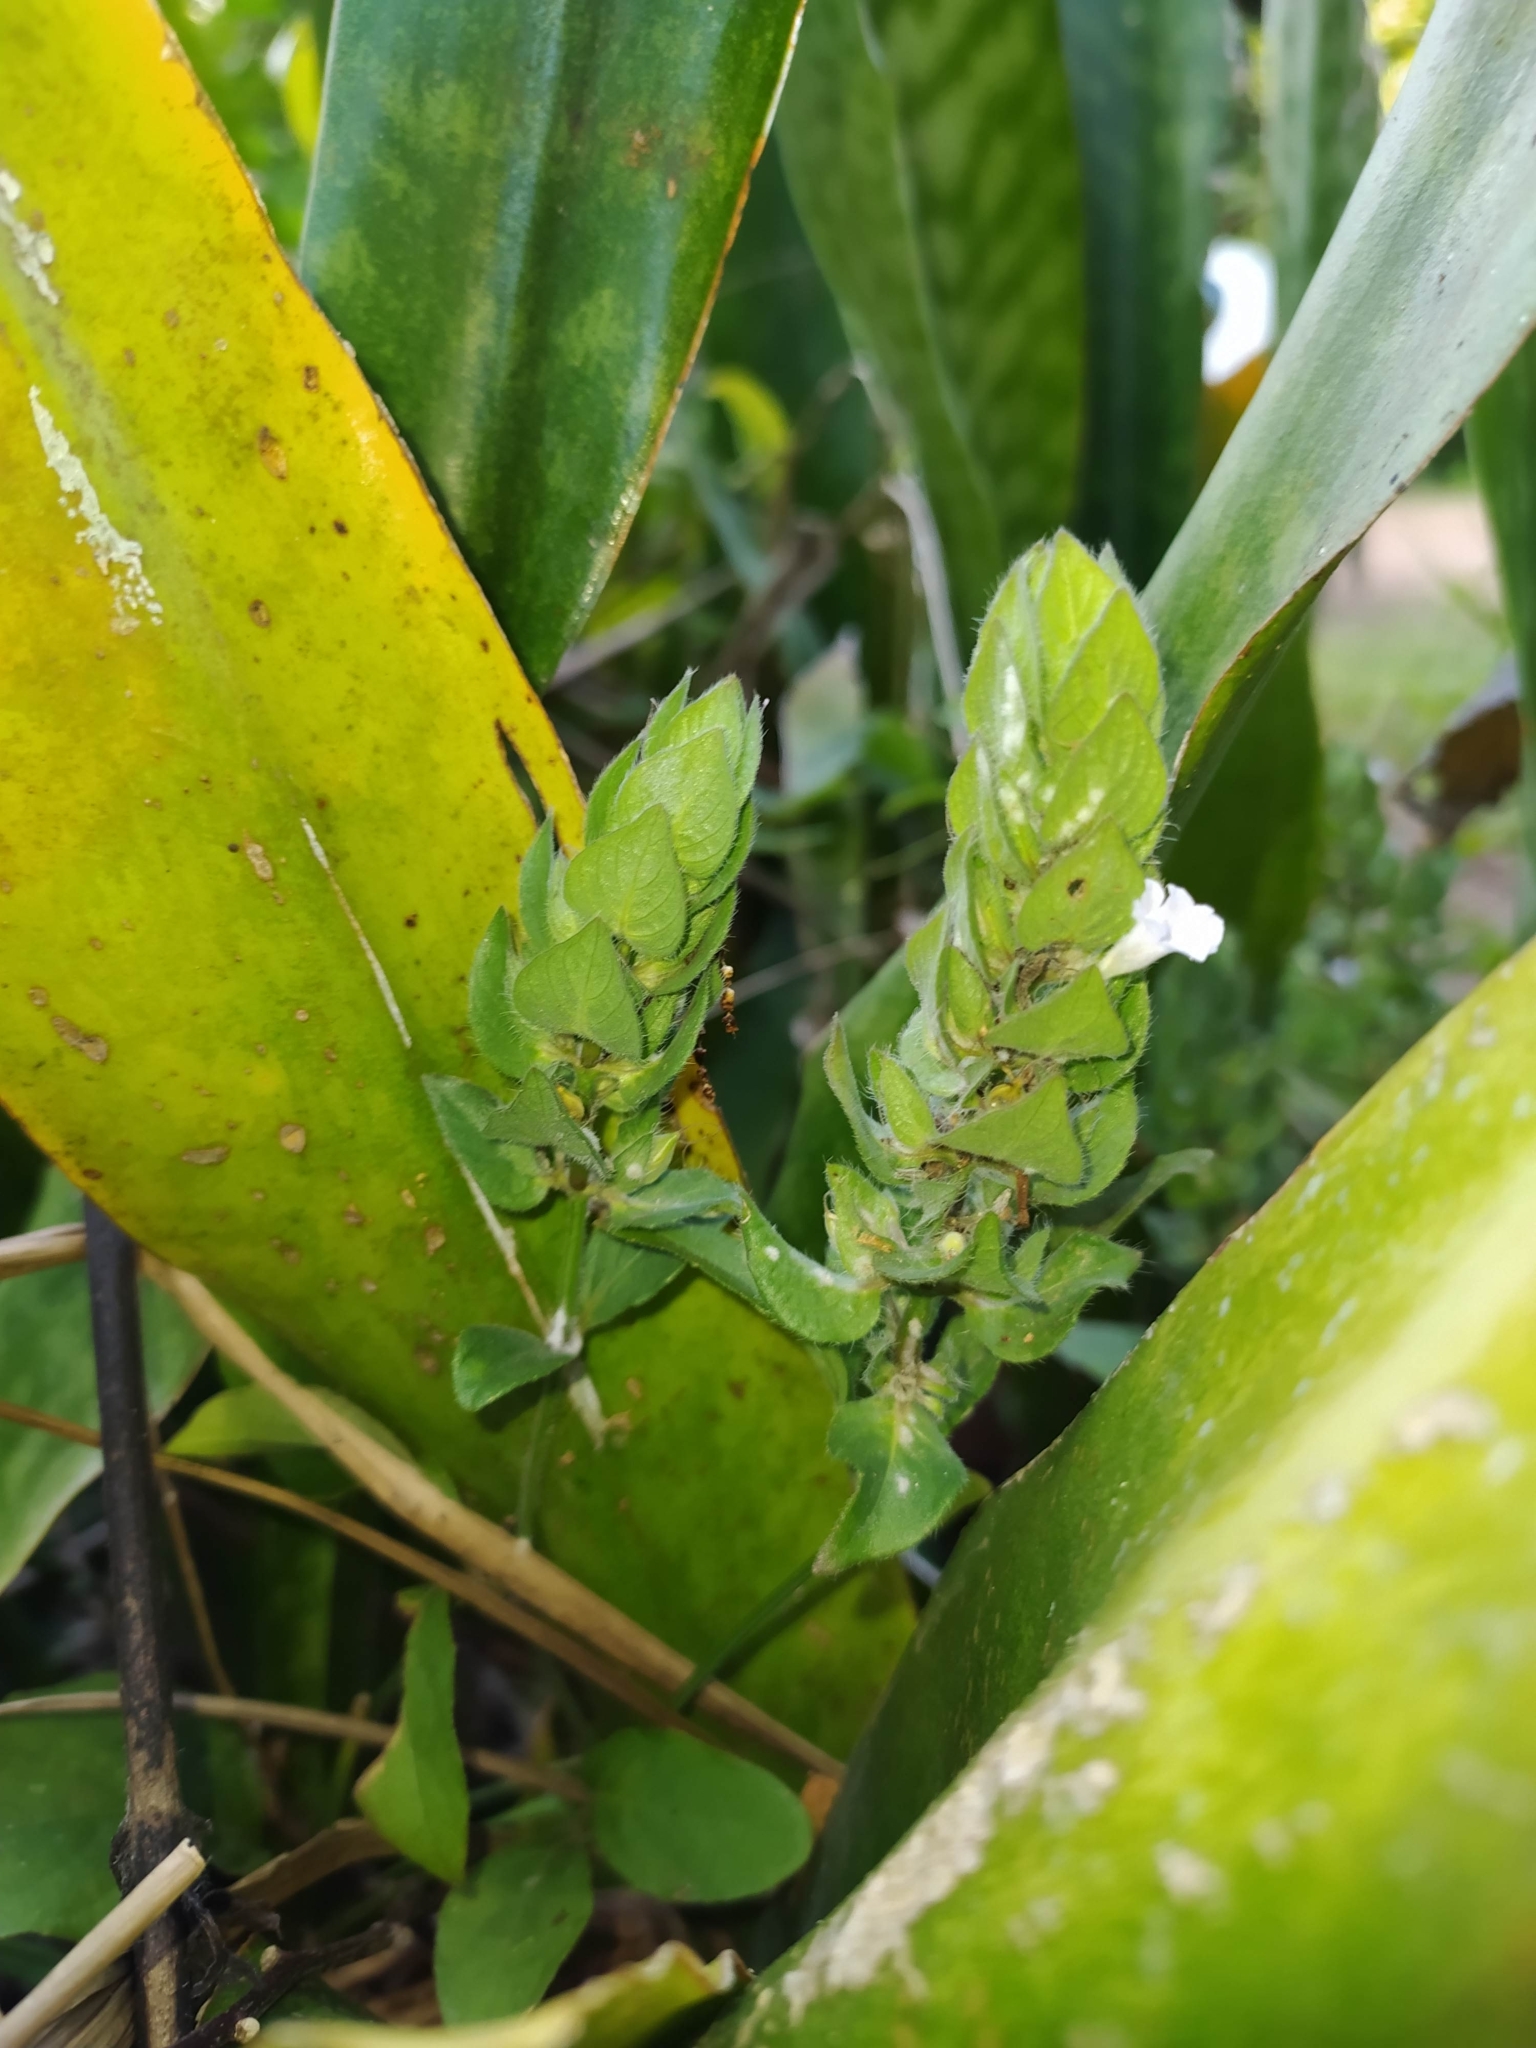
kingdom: Plantae
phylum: Tracheophyta
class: Magnoliopsida
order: Lamiales
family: Acanthaceae
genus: Ruellia
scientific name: Ruellia blechum
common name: Browne's blechum
